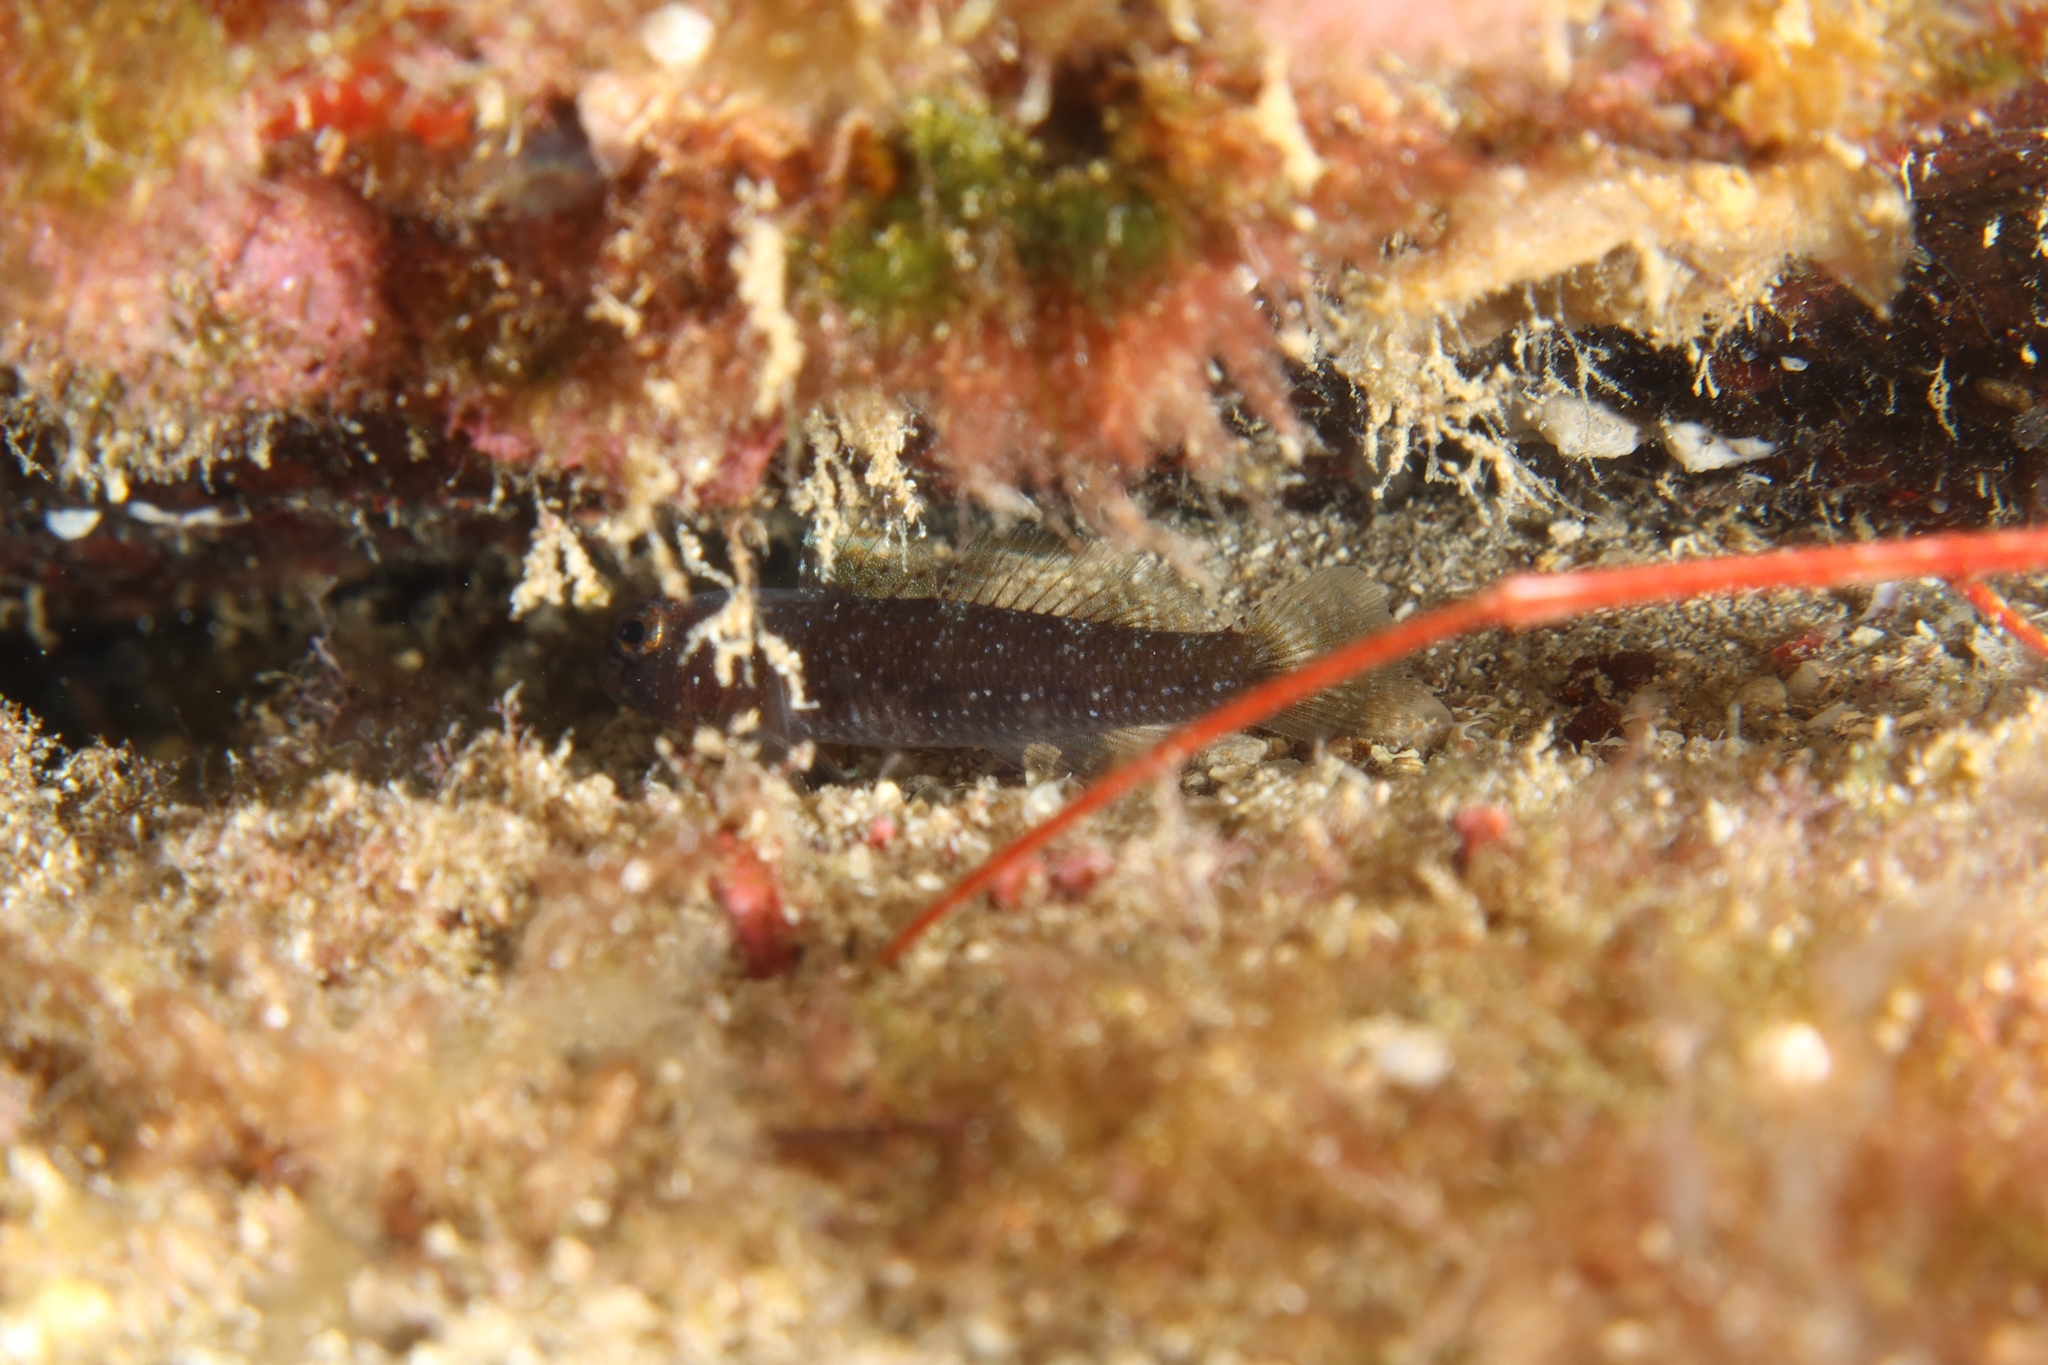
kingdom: Animalia
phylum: Chordata
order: Perciformes
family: Gobiidae
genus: Vanneaugobius
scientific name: Vanneaugobius canariensis
